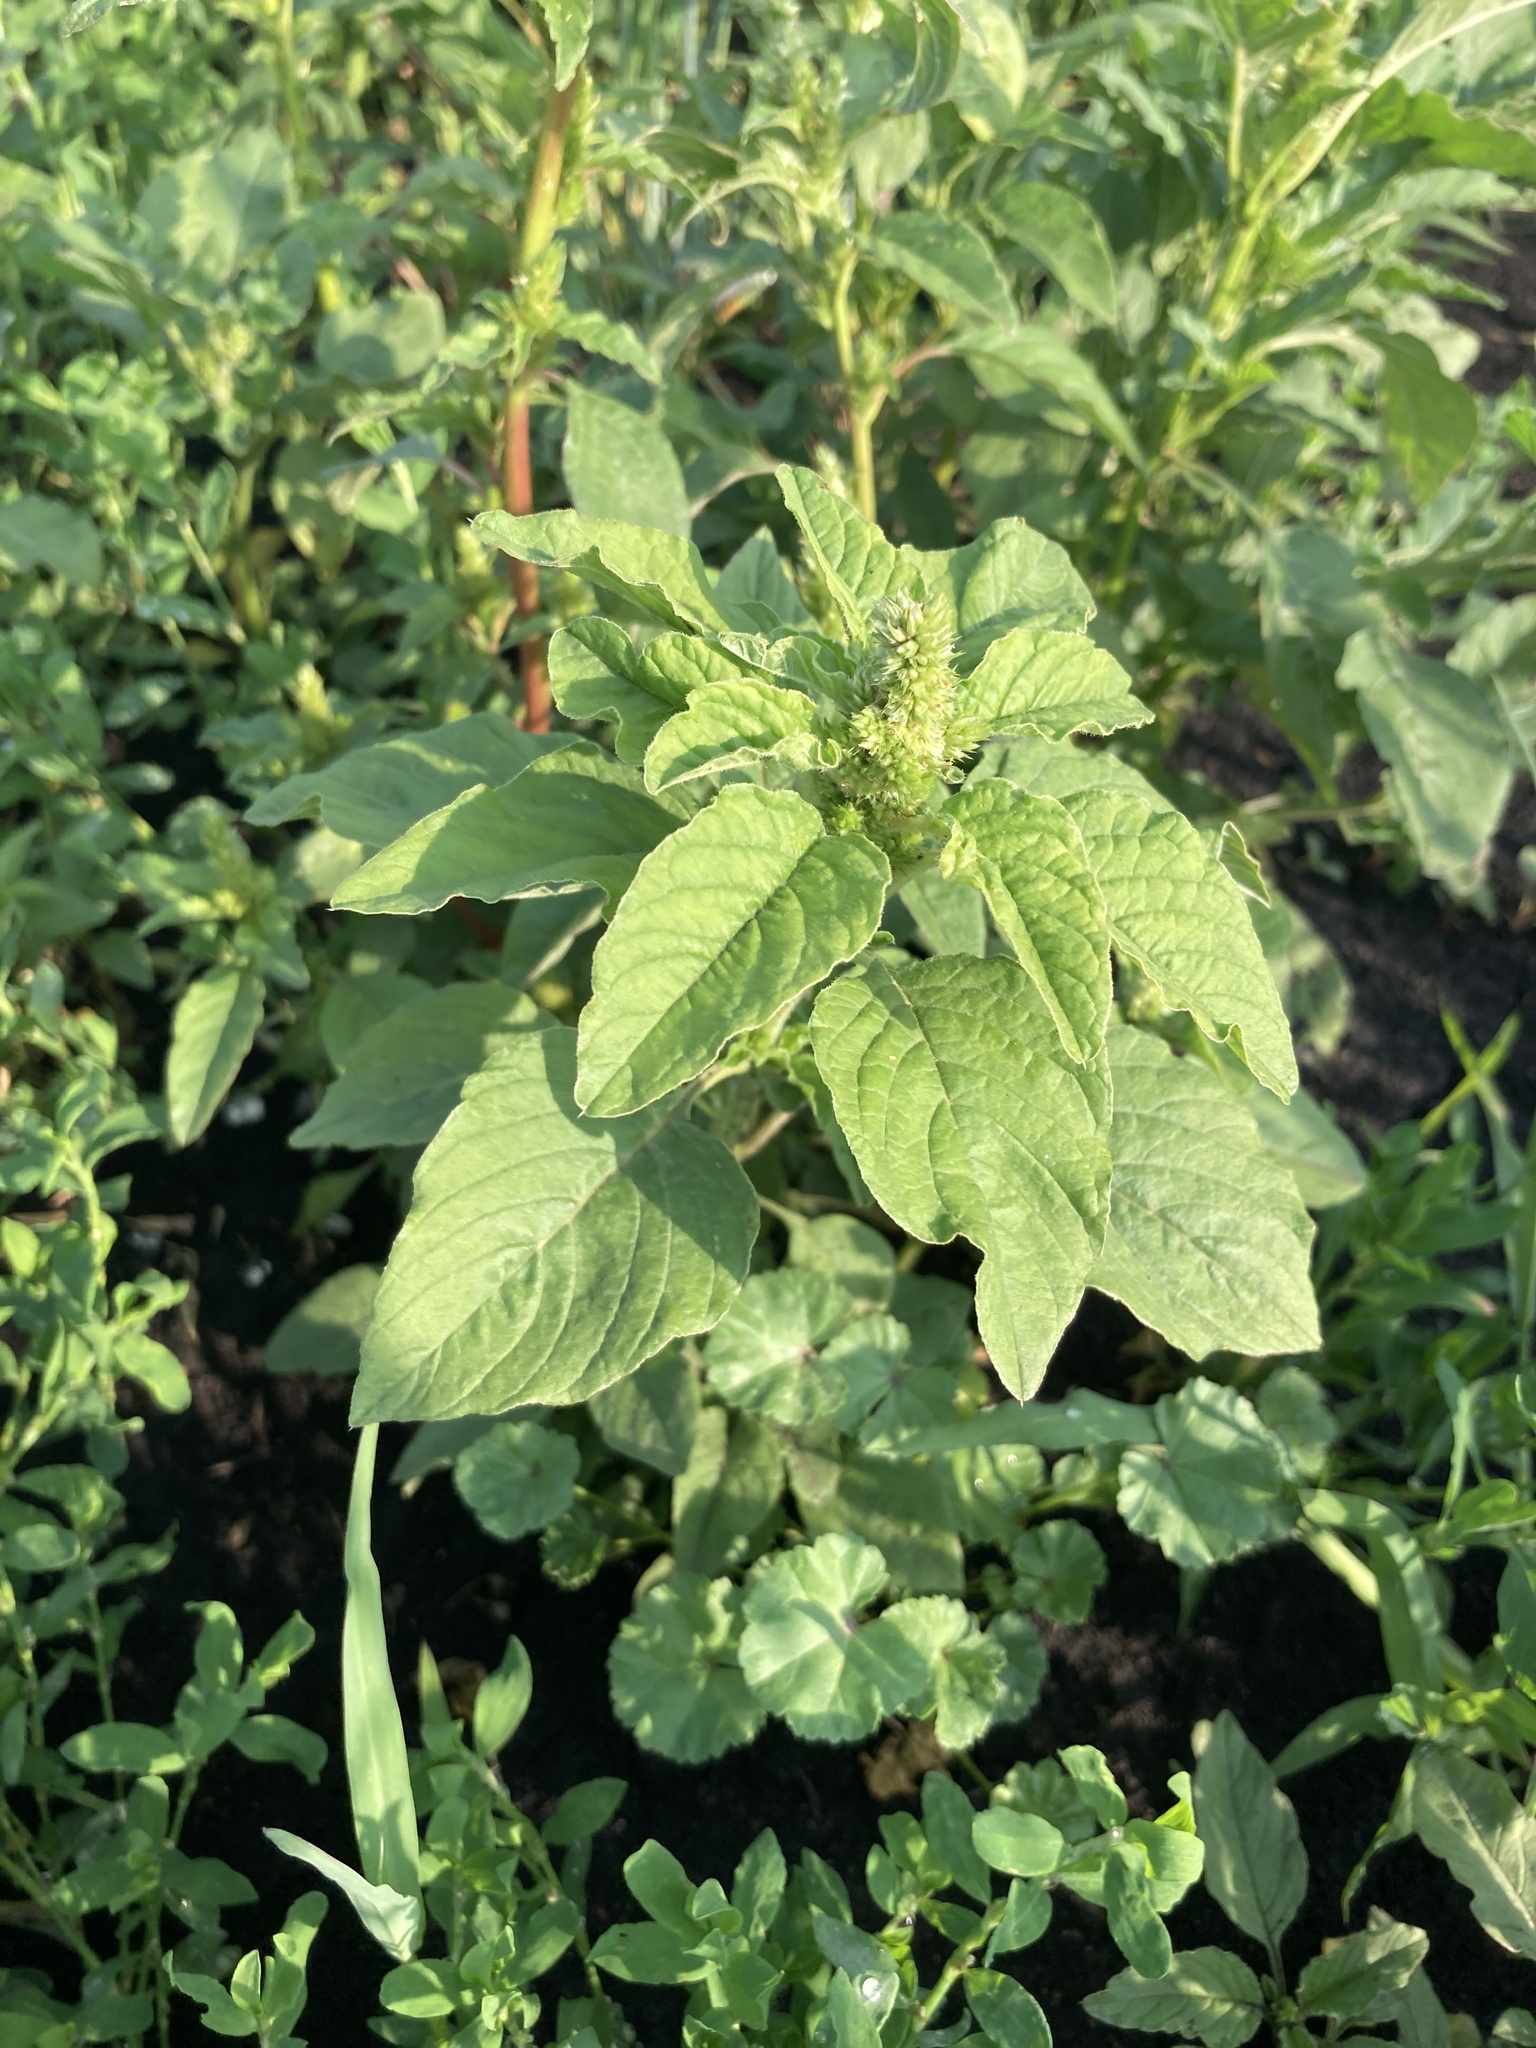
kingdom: Plantae
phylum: Tracheophyta
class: Magnoliopsida
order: Caryophyllales
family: Amaranthaceae
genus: Amaranthus
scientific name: Amaranthus retroflexus
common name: Redroot amaranth
